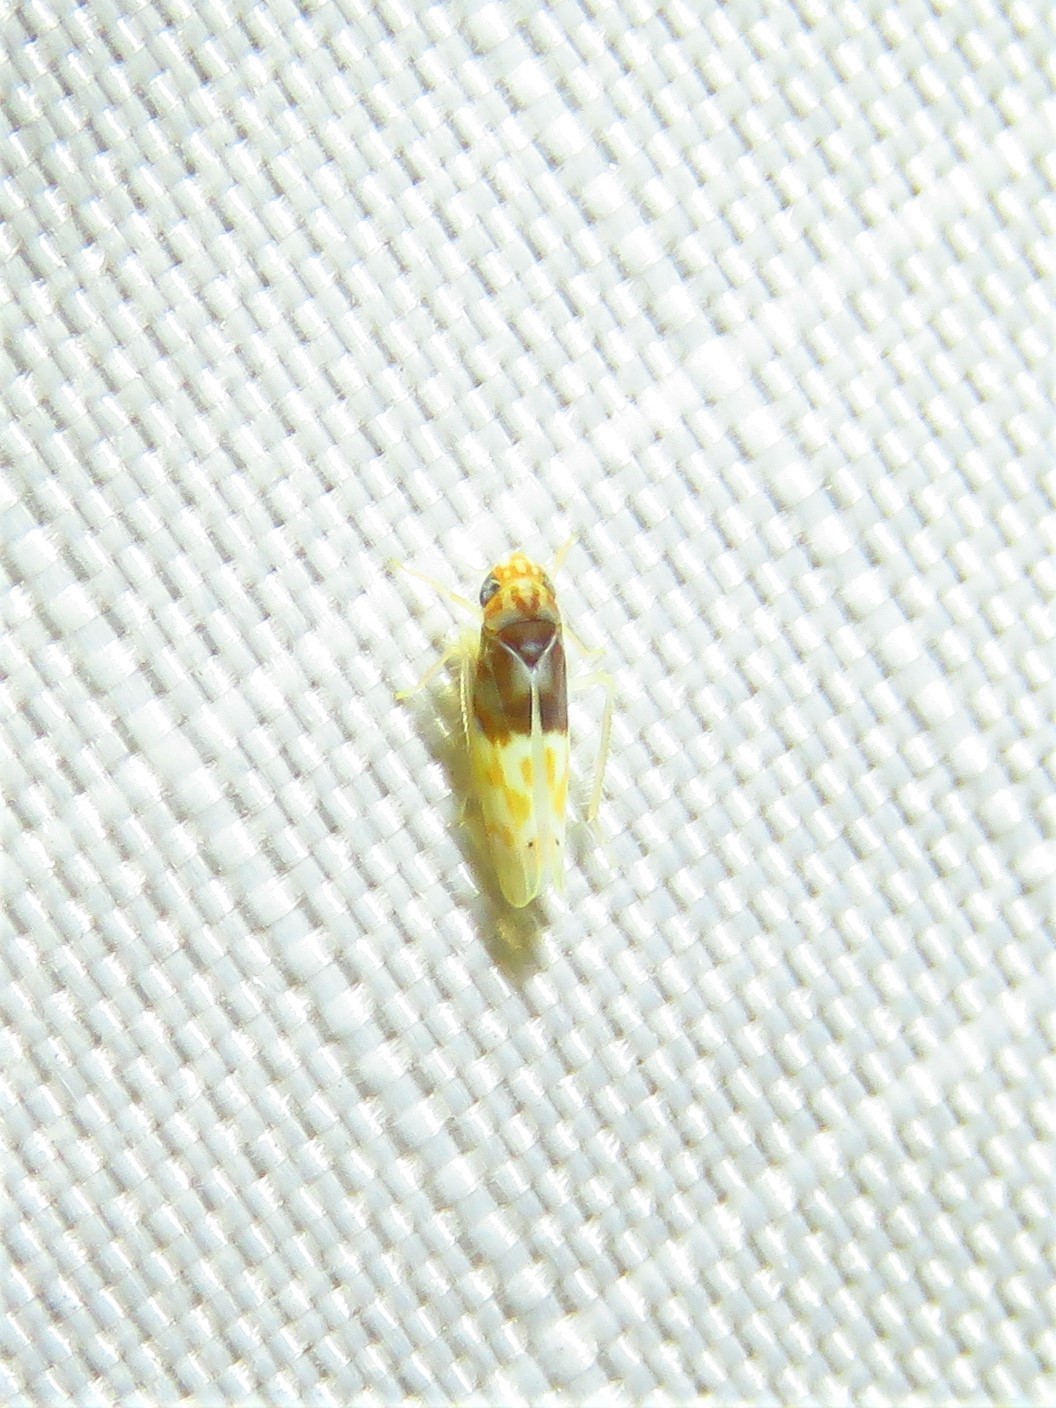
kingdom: Animalia
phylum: Arthropoda
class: Insecta
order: Hemiptera
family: Cicadellidae
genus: Eratoneura
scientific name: Eratoneura affinis
